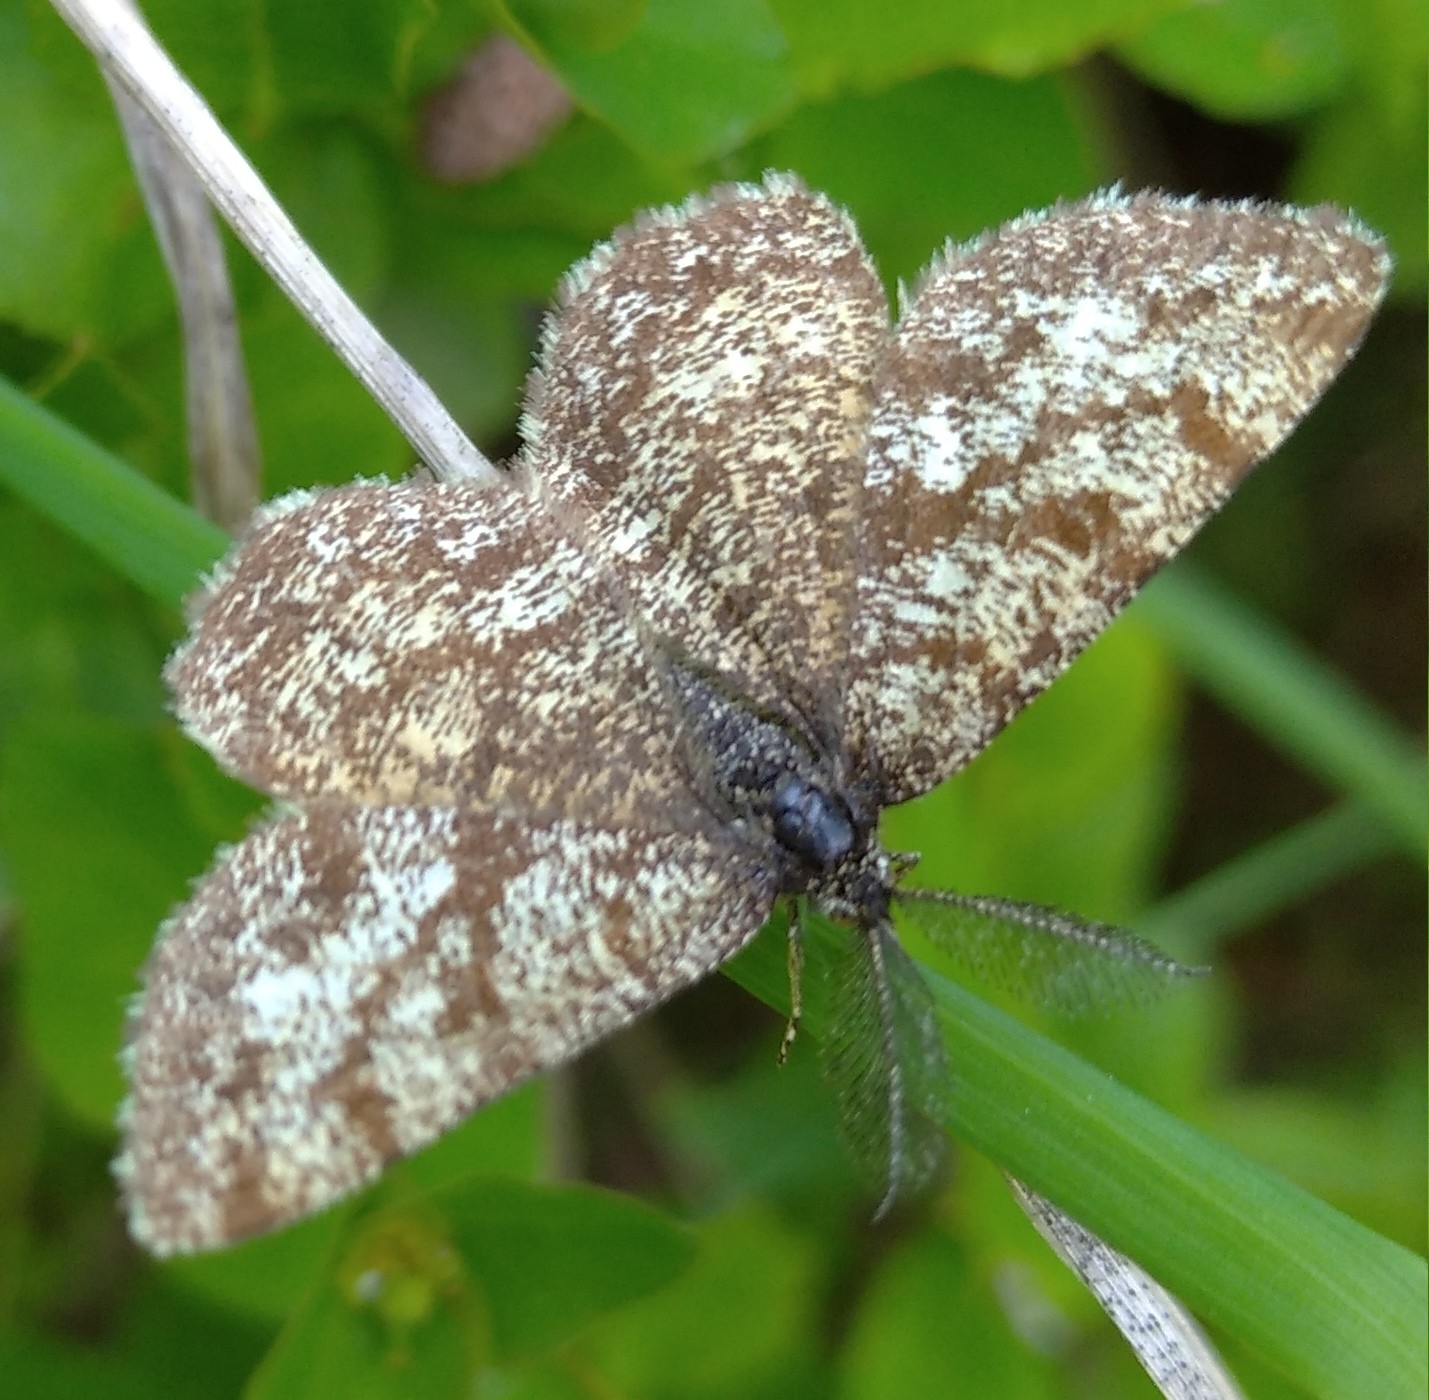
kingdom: Animalia
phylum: Arthropoda
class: Insecta
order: Lepidoptera
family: Geometridae
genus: Ematurga
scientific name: Ematurga atomaria
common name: Common heath
